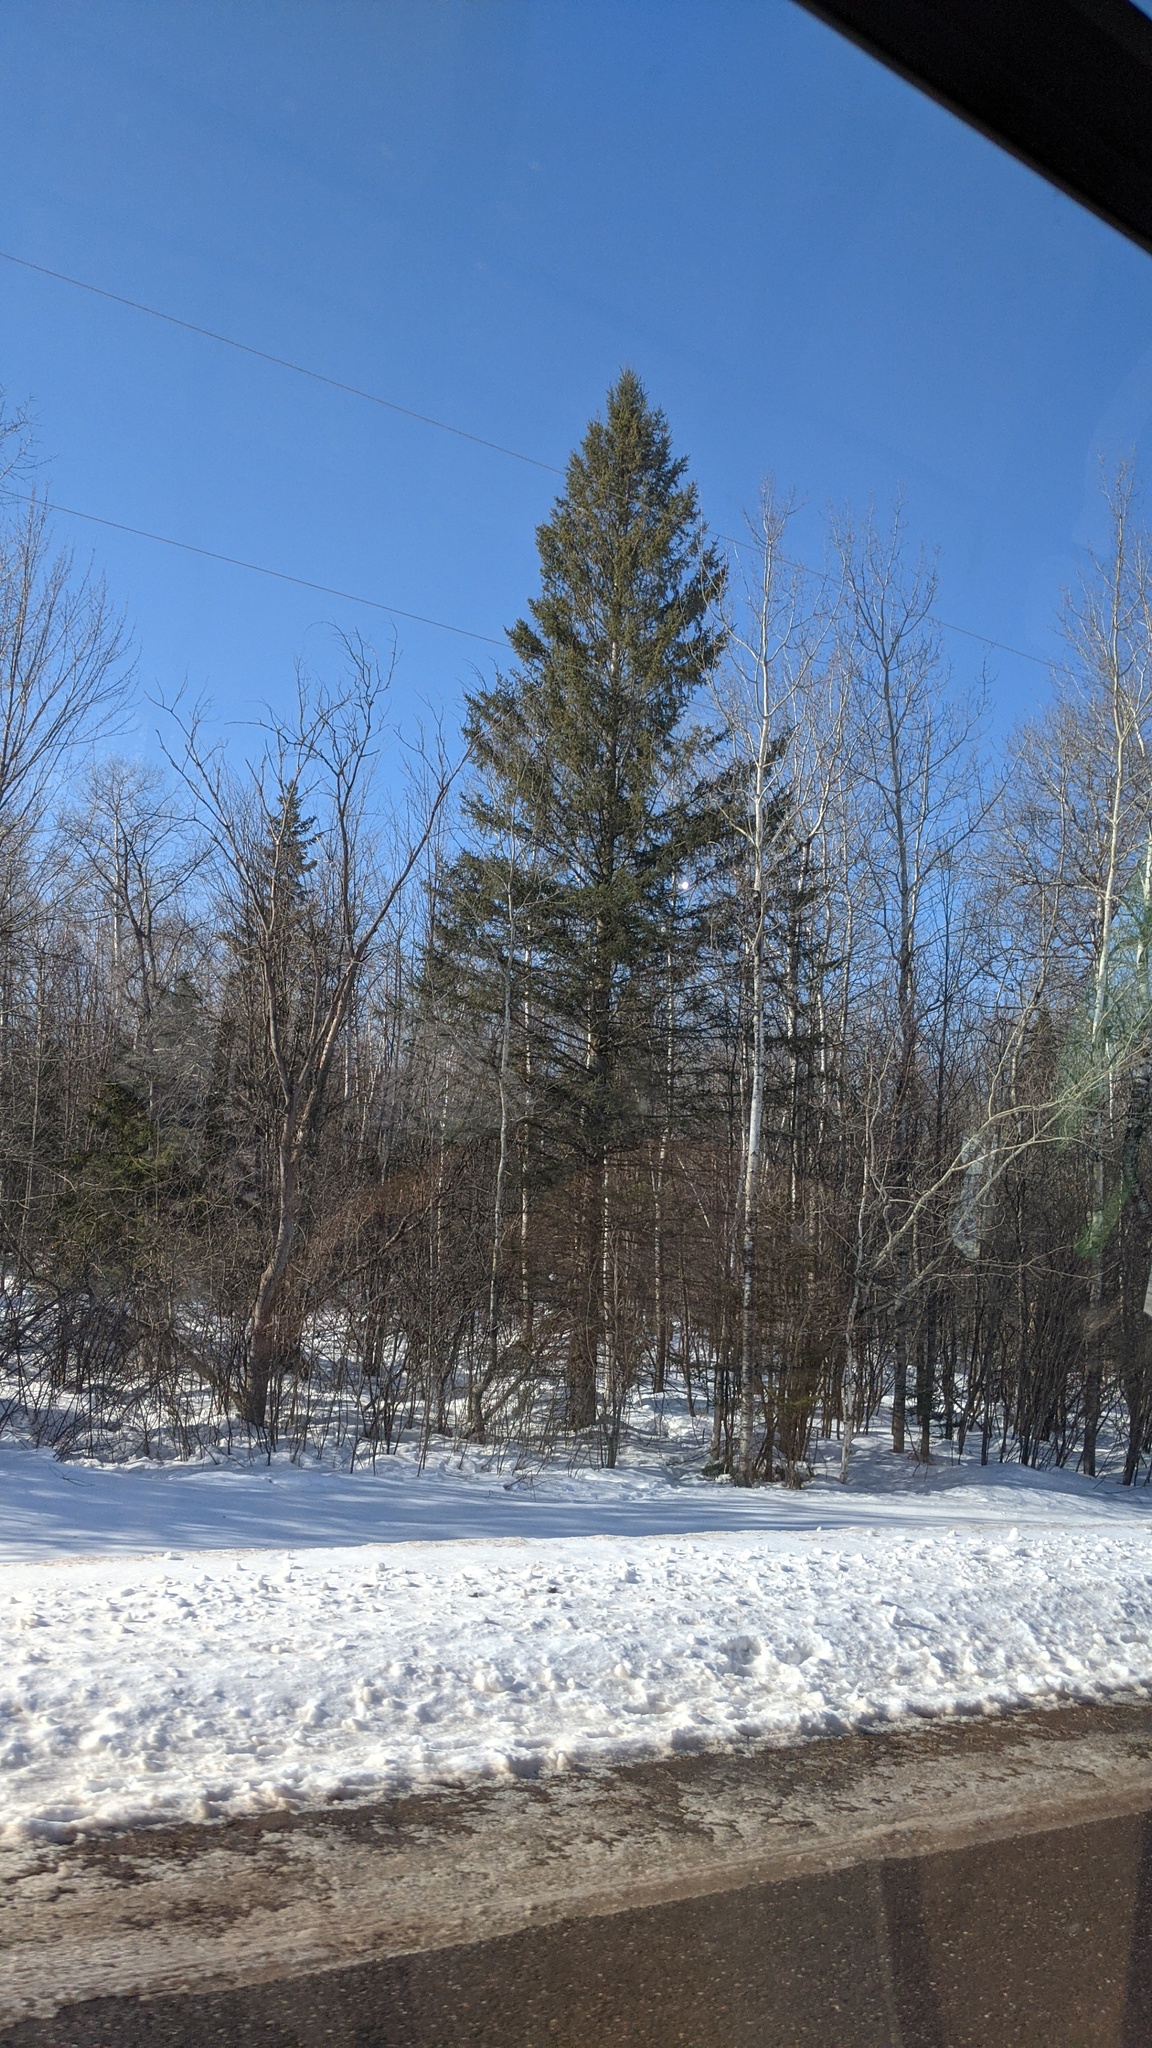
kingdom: Plantae
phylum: Tracheophyta
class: Pinopsida
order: Pinales
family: Pinaceae
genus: Pinus
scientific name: Pinus strobus
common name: Weymouth pine
